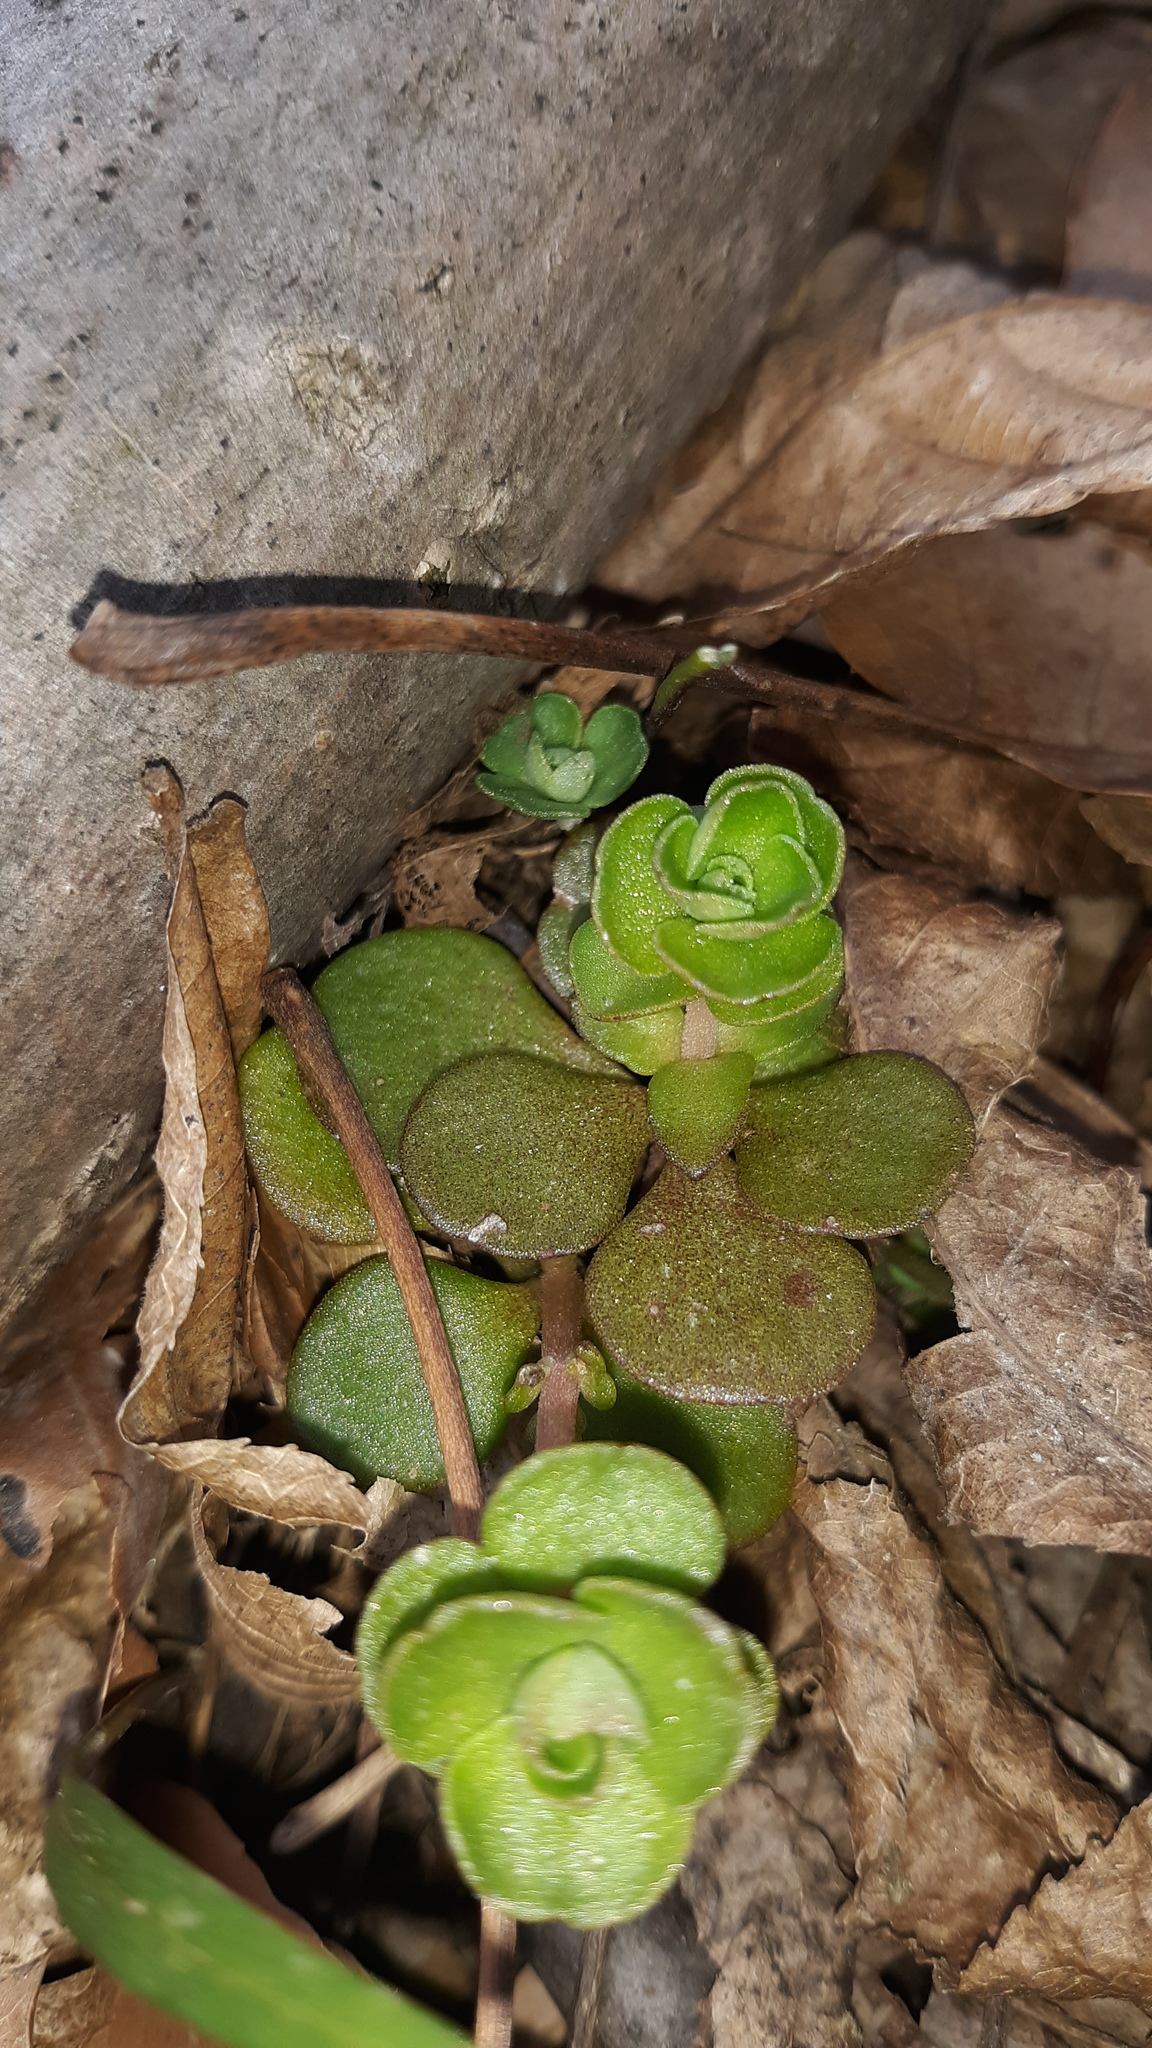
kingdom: Plantae
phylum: Tracheophyta
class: Magnoliopsida
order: Saxifragales
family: Crassulaceae
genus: Sedum
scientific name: Sedum ternatum
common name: Wild stonecrop
